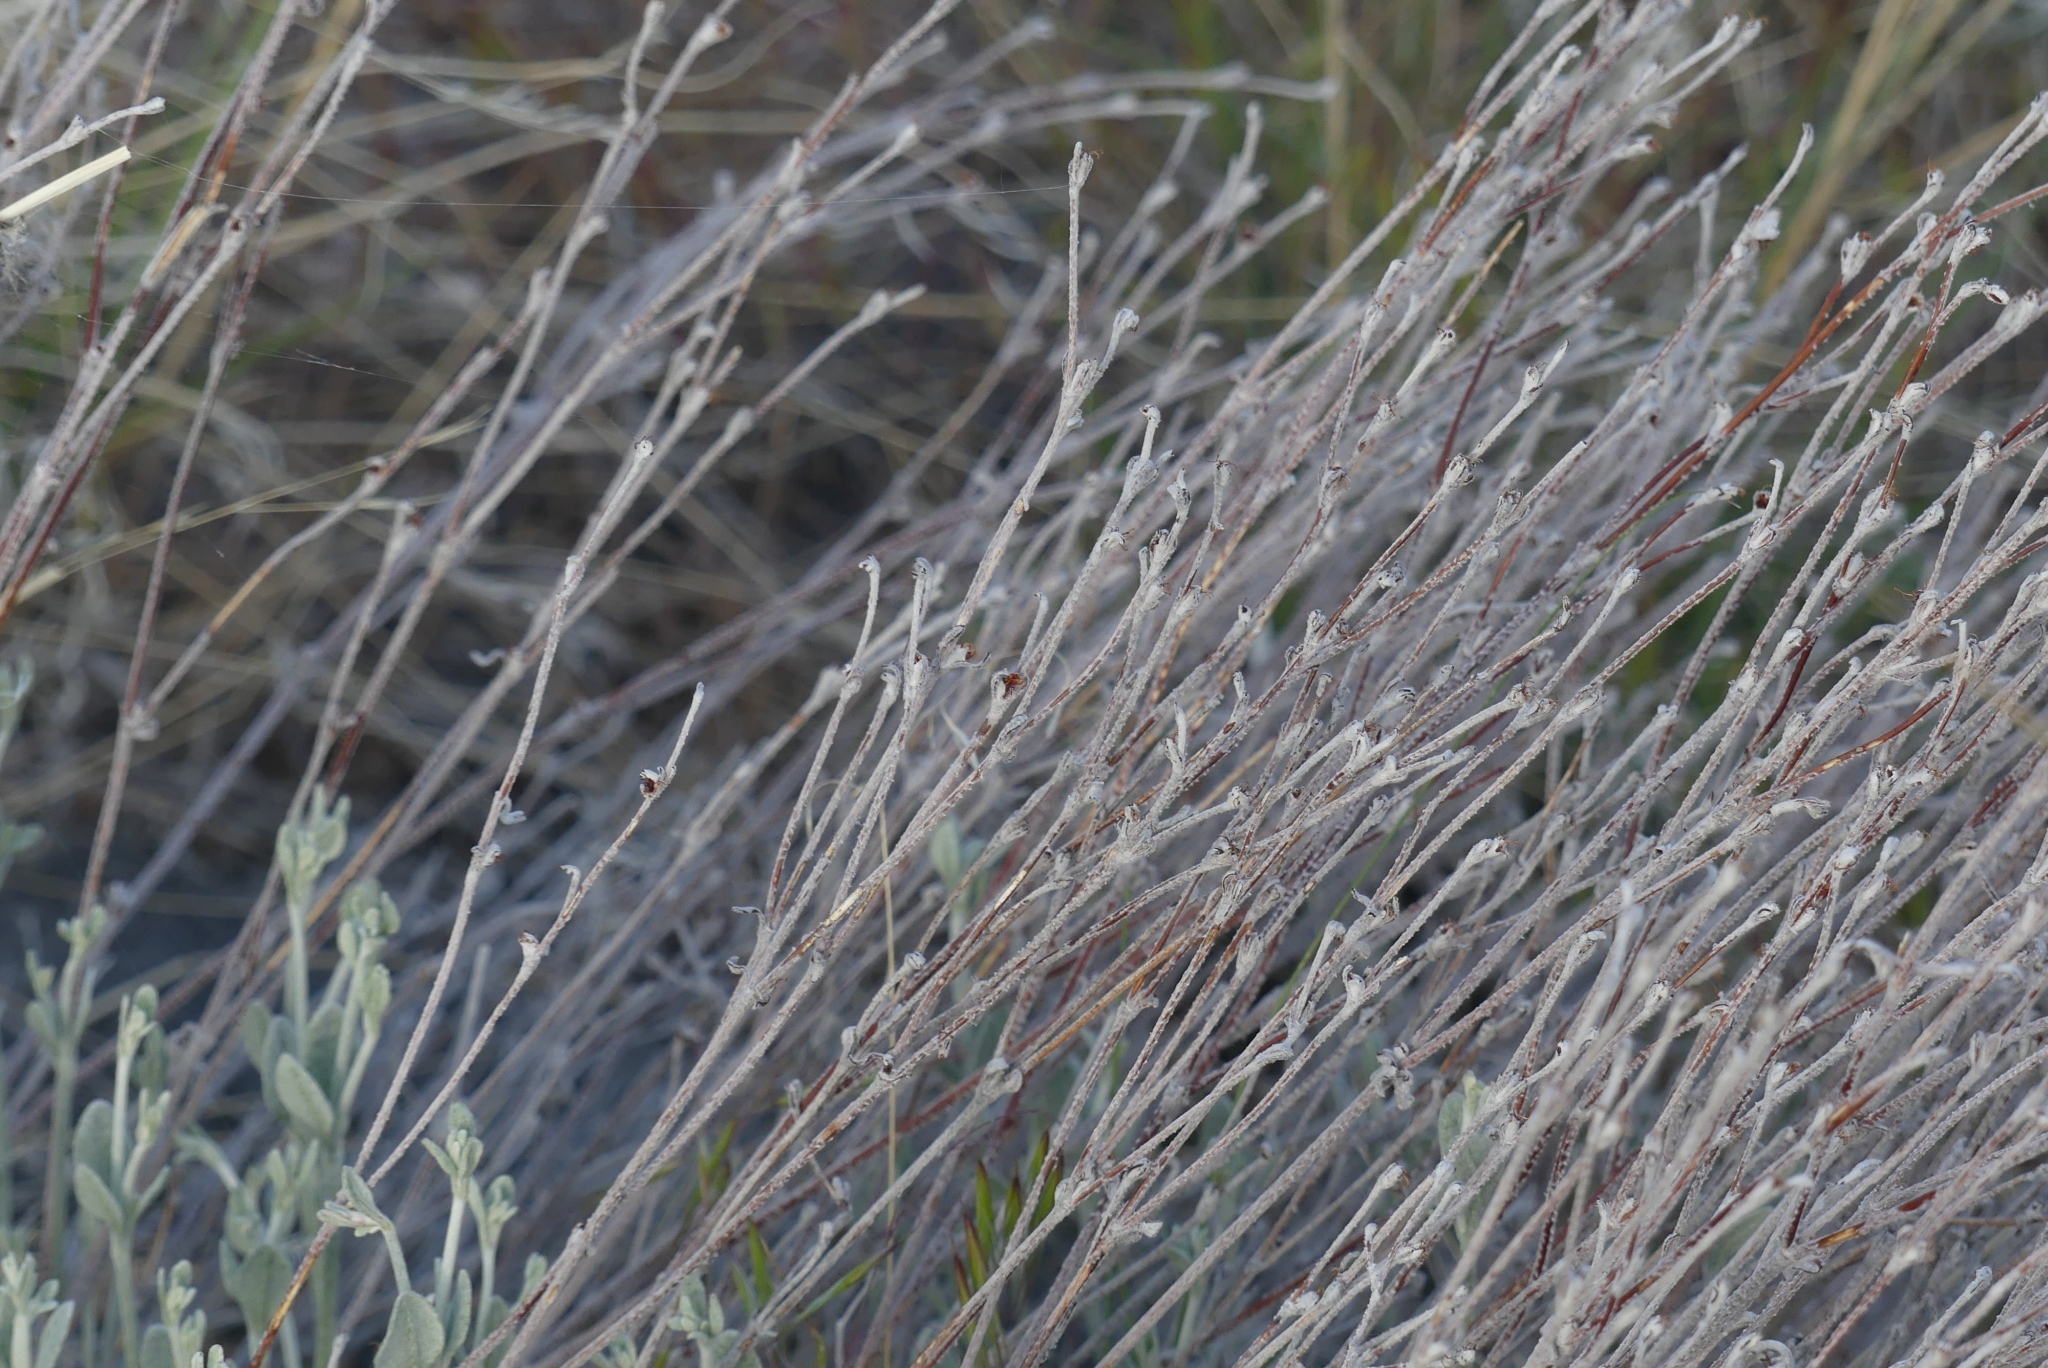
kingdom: Plantae
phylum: Tracheophyta
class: Magnoliopsida
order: Caryophyllales
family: Polygonaceae
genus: Eriogonum
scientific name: Eriogonum niveum
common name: Snow wild buckwheat
